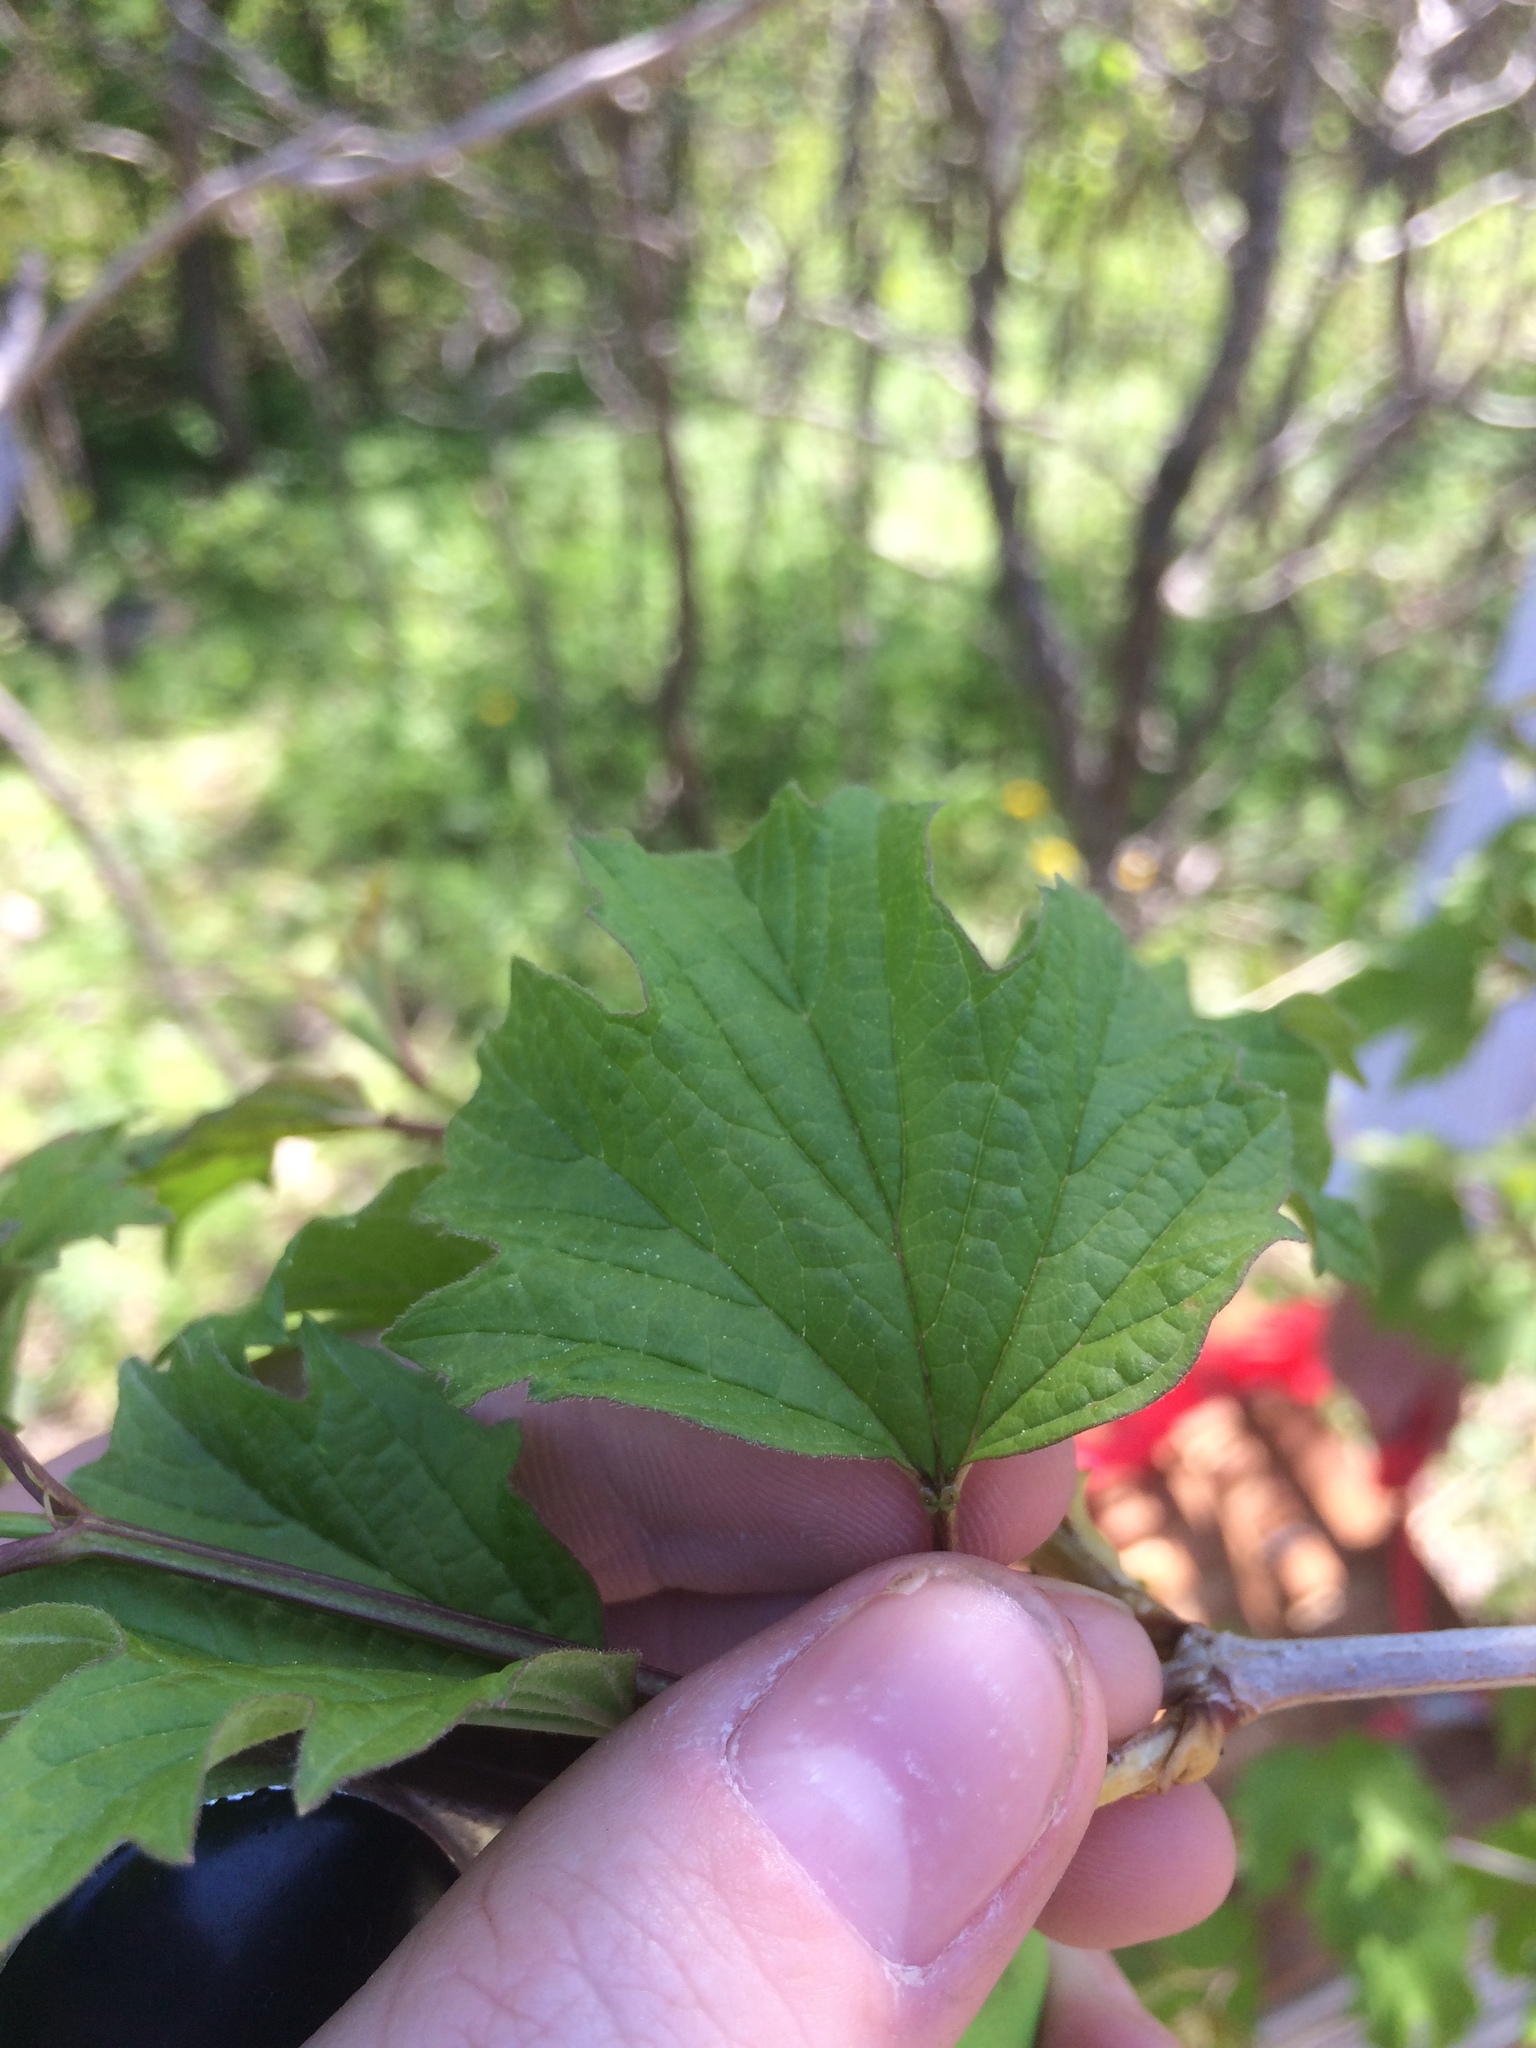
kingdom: Plantae
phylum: Tracheophyta
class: Magnoliopsida
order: Dipsacales
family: Viburnaceae
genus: Viburnum
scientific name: Viburnum opulus
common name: Guelder-rose
